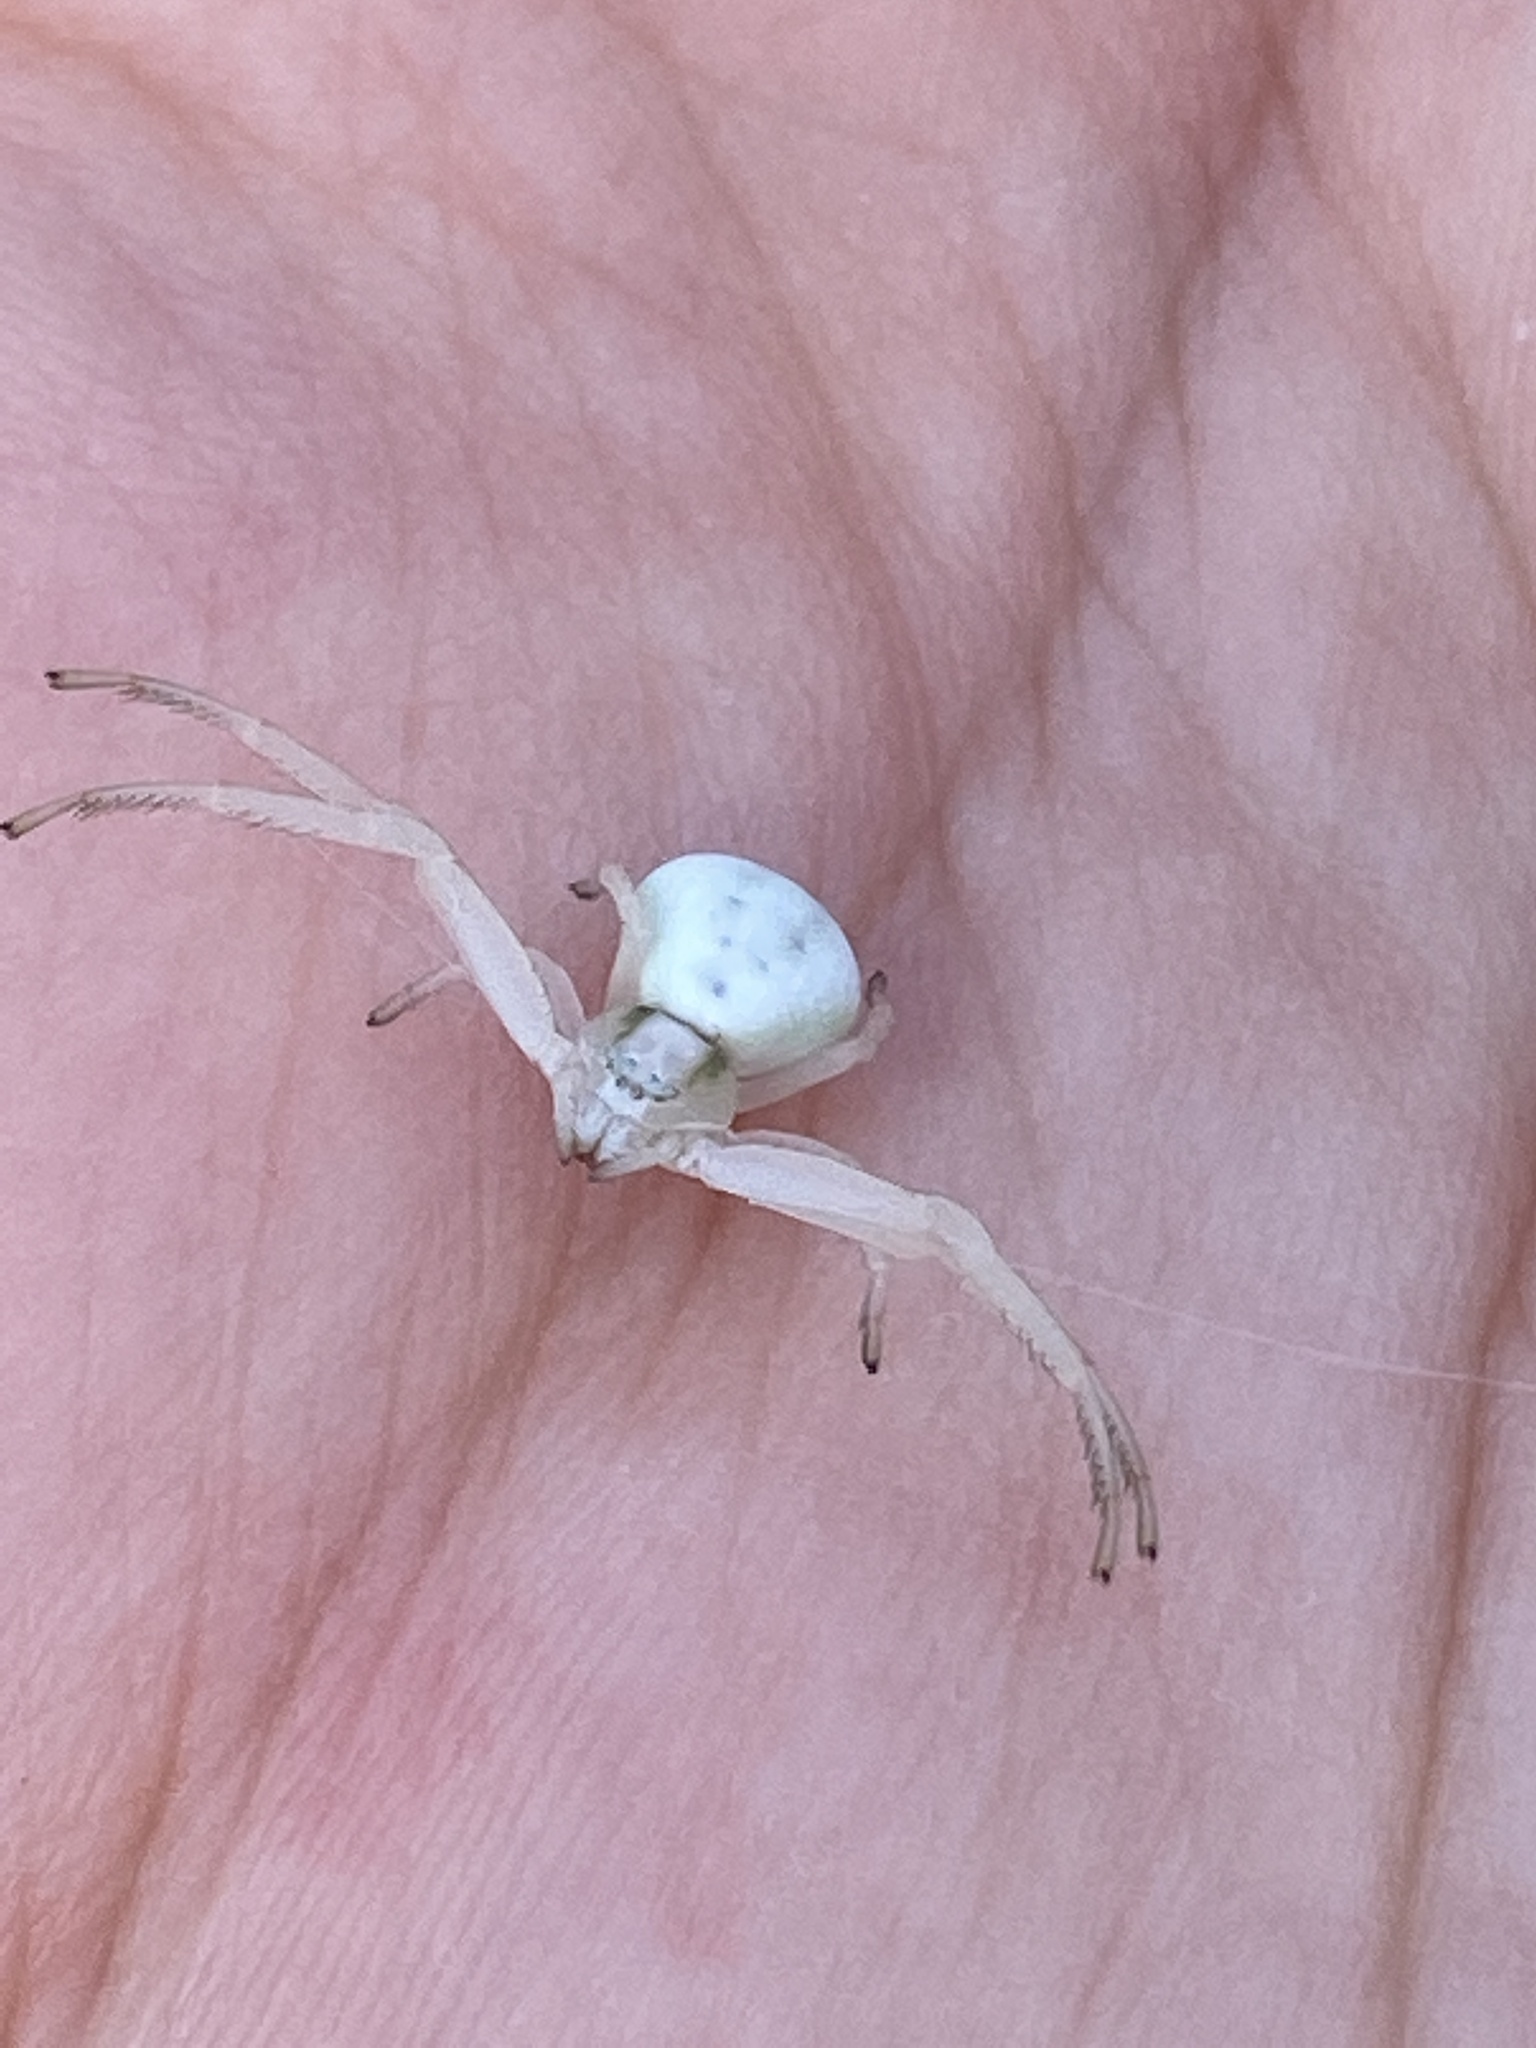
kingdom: Animalia
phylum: Arthropoda
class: Arachnida
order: Araneae
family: Thomisidae
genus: Misumena
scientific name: Misumena vatia
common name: Goldenrod crab spider
